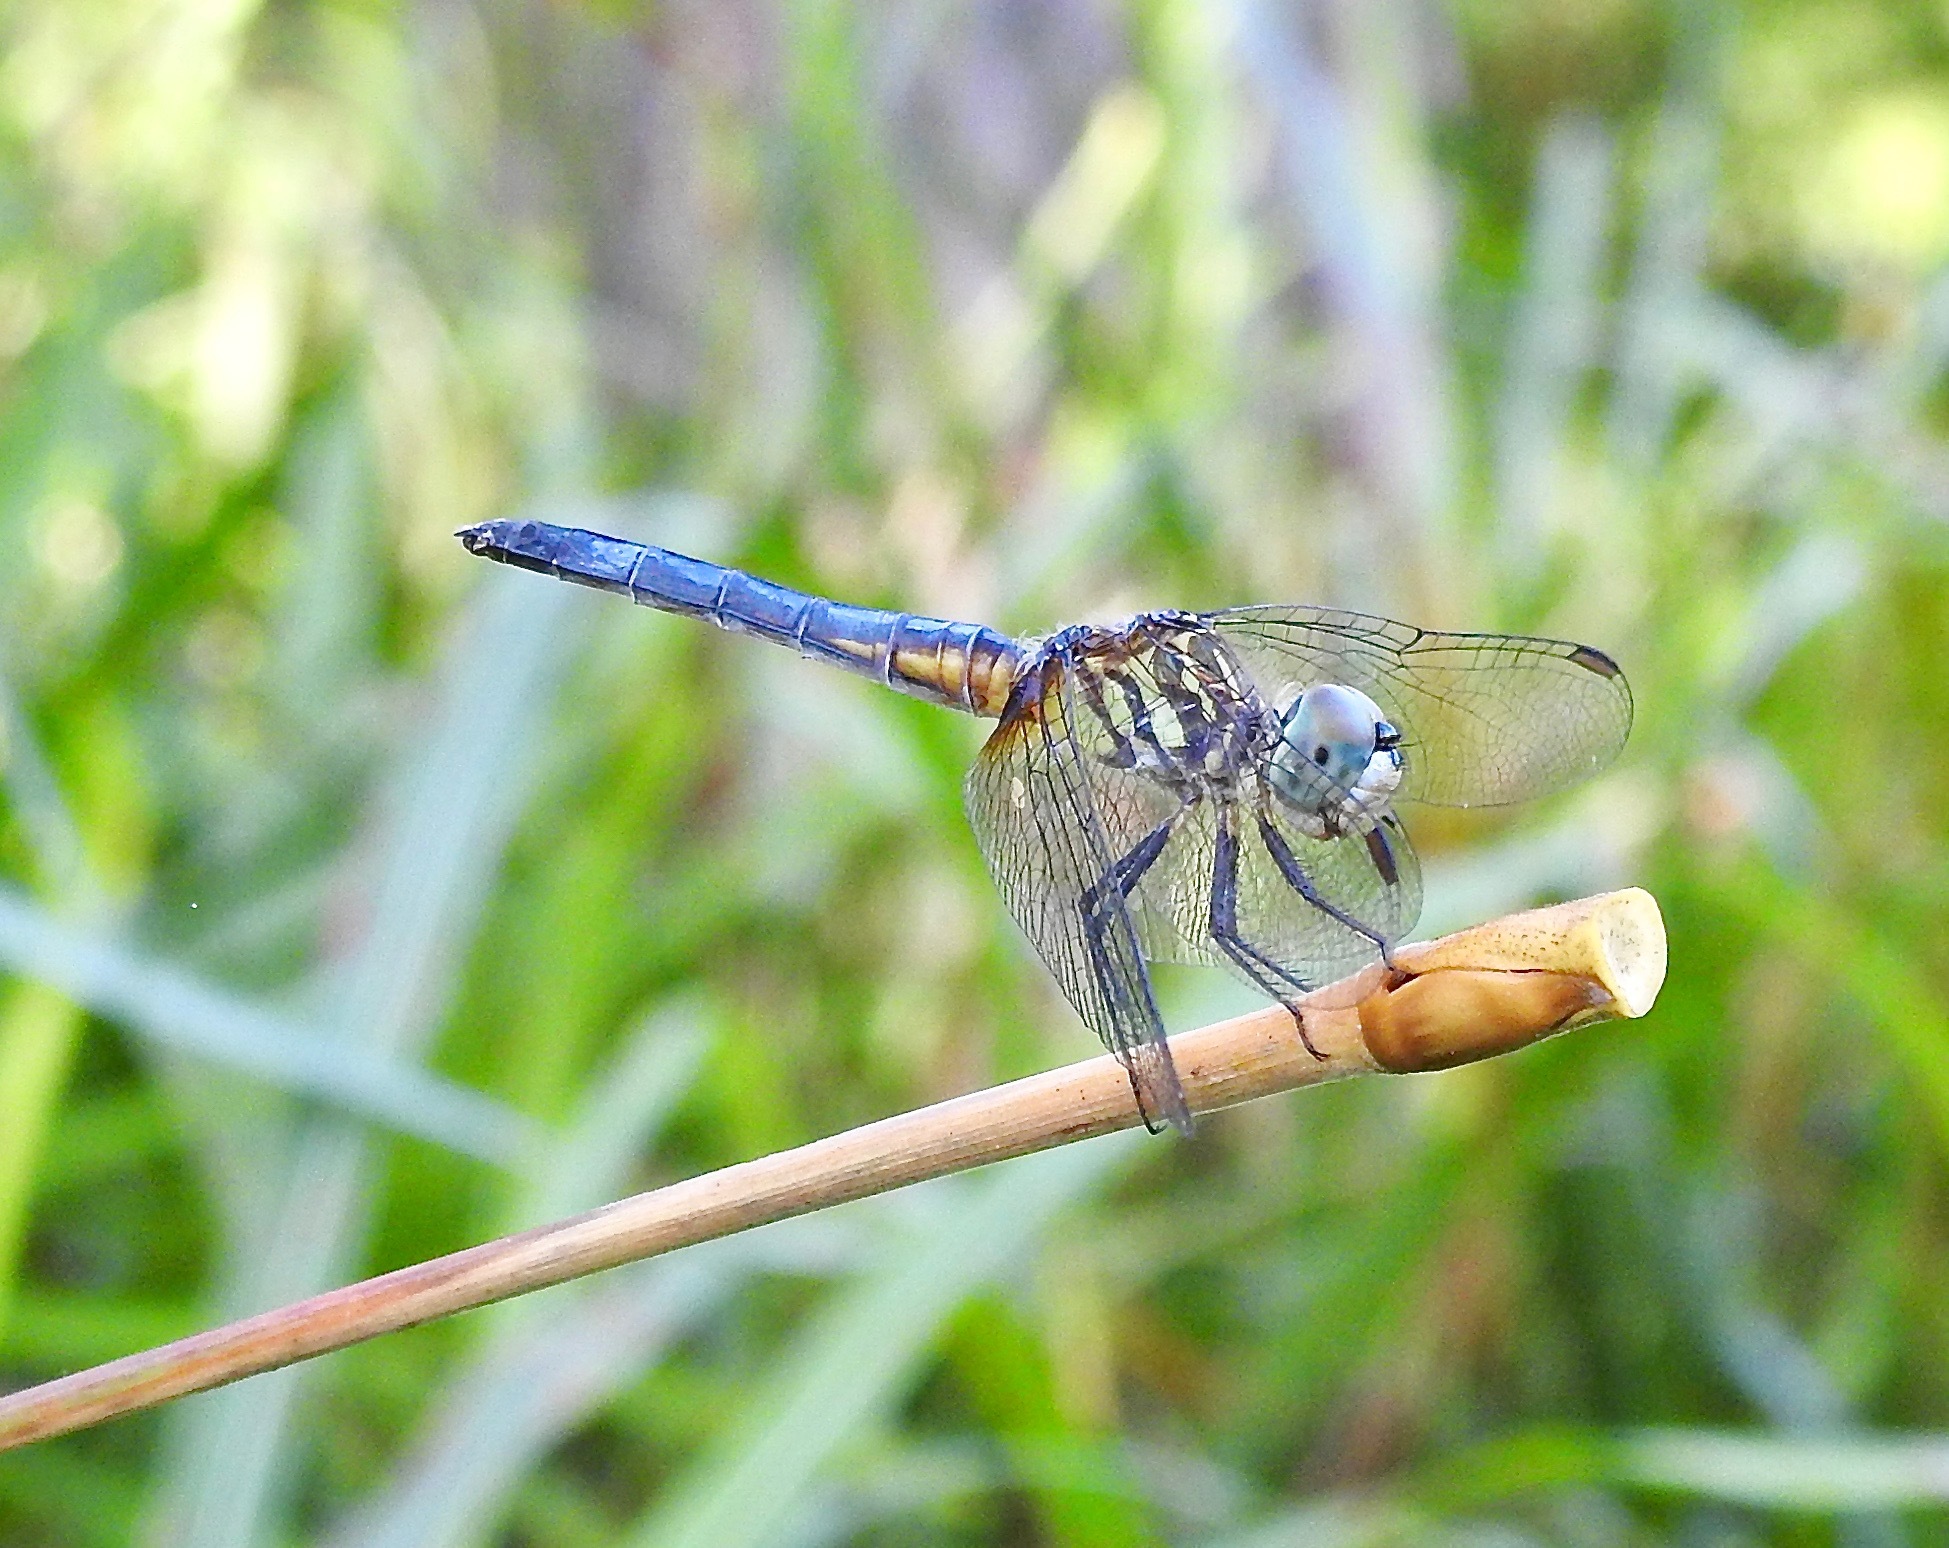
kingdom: Animalia
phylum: Arthropoda
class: Insecta
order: Odonata
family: Libellulidae
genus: Pachydiplax
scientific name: Pachydiplax longipennis
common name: Blue dasher
